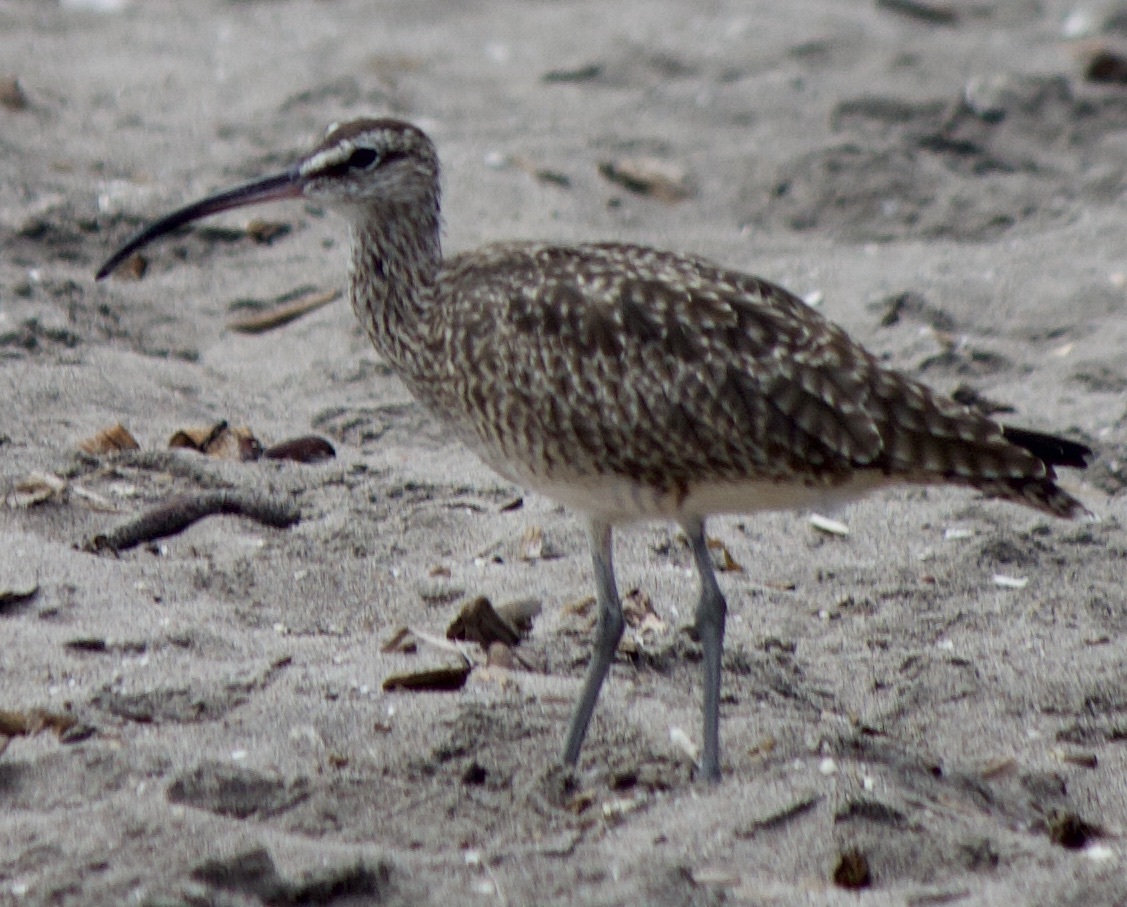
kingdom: Animalia
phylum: Chordata
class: Aves
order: Charadriiformes
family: Scolopacidae
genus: Numenius
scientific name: Numenius phaeopus
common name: Whimbrel
